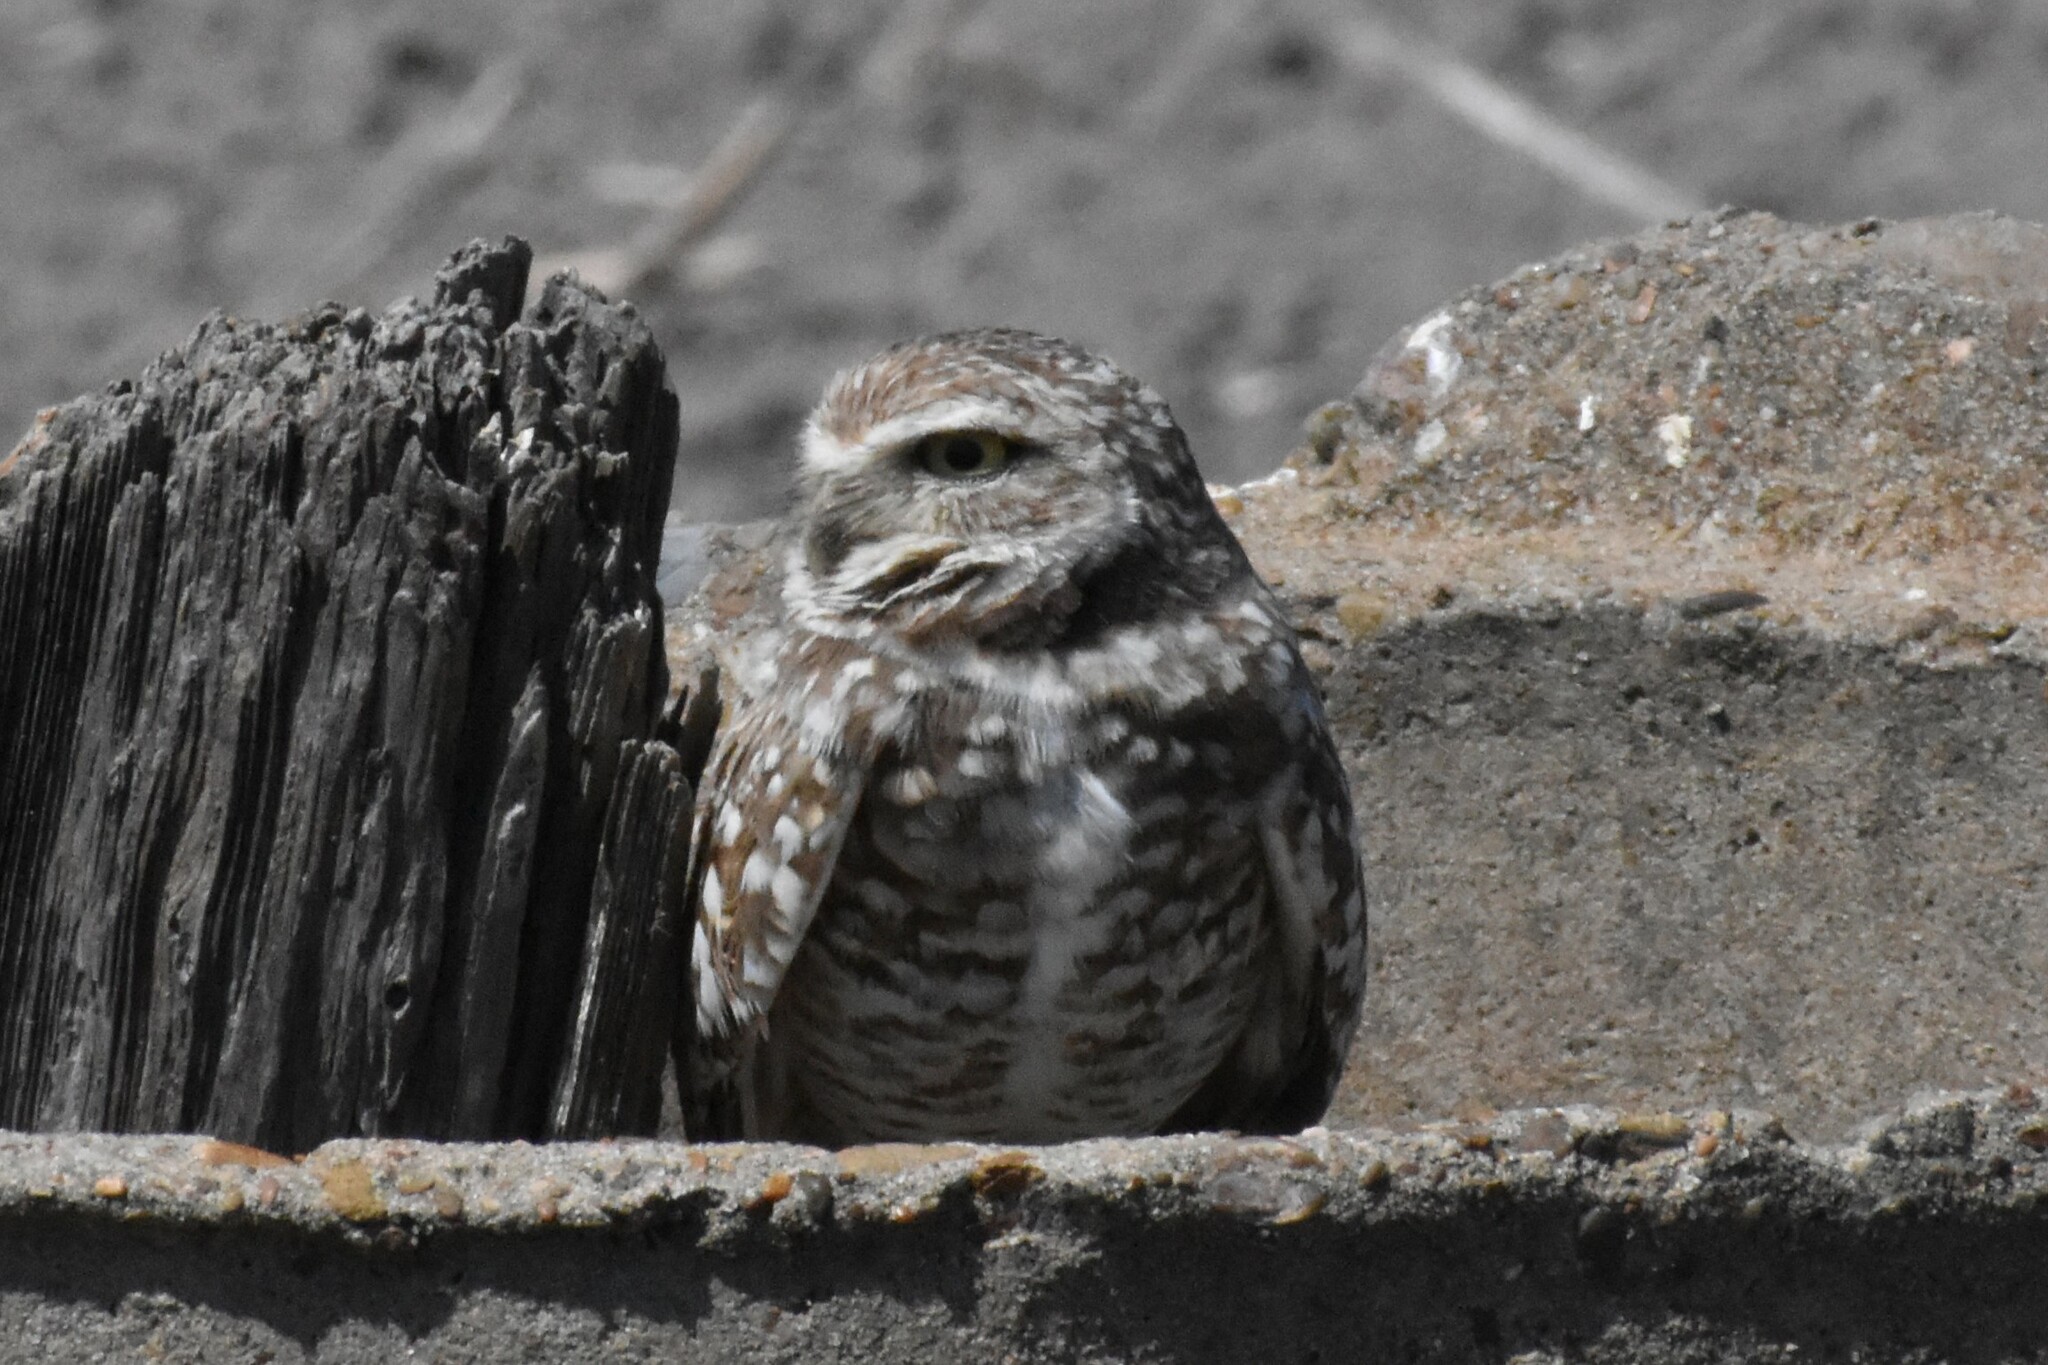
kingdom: Animalia
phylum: Chordata
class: Aves
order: Strigiformes
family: Strigidae
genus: Athene
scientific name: Athene cunicularia
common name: Burrowing owl
